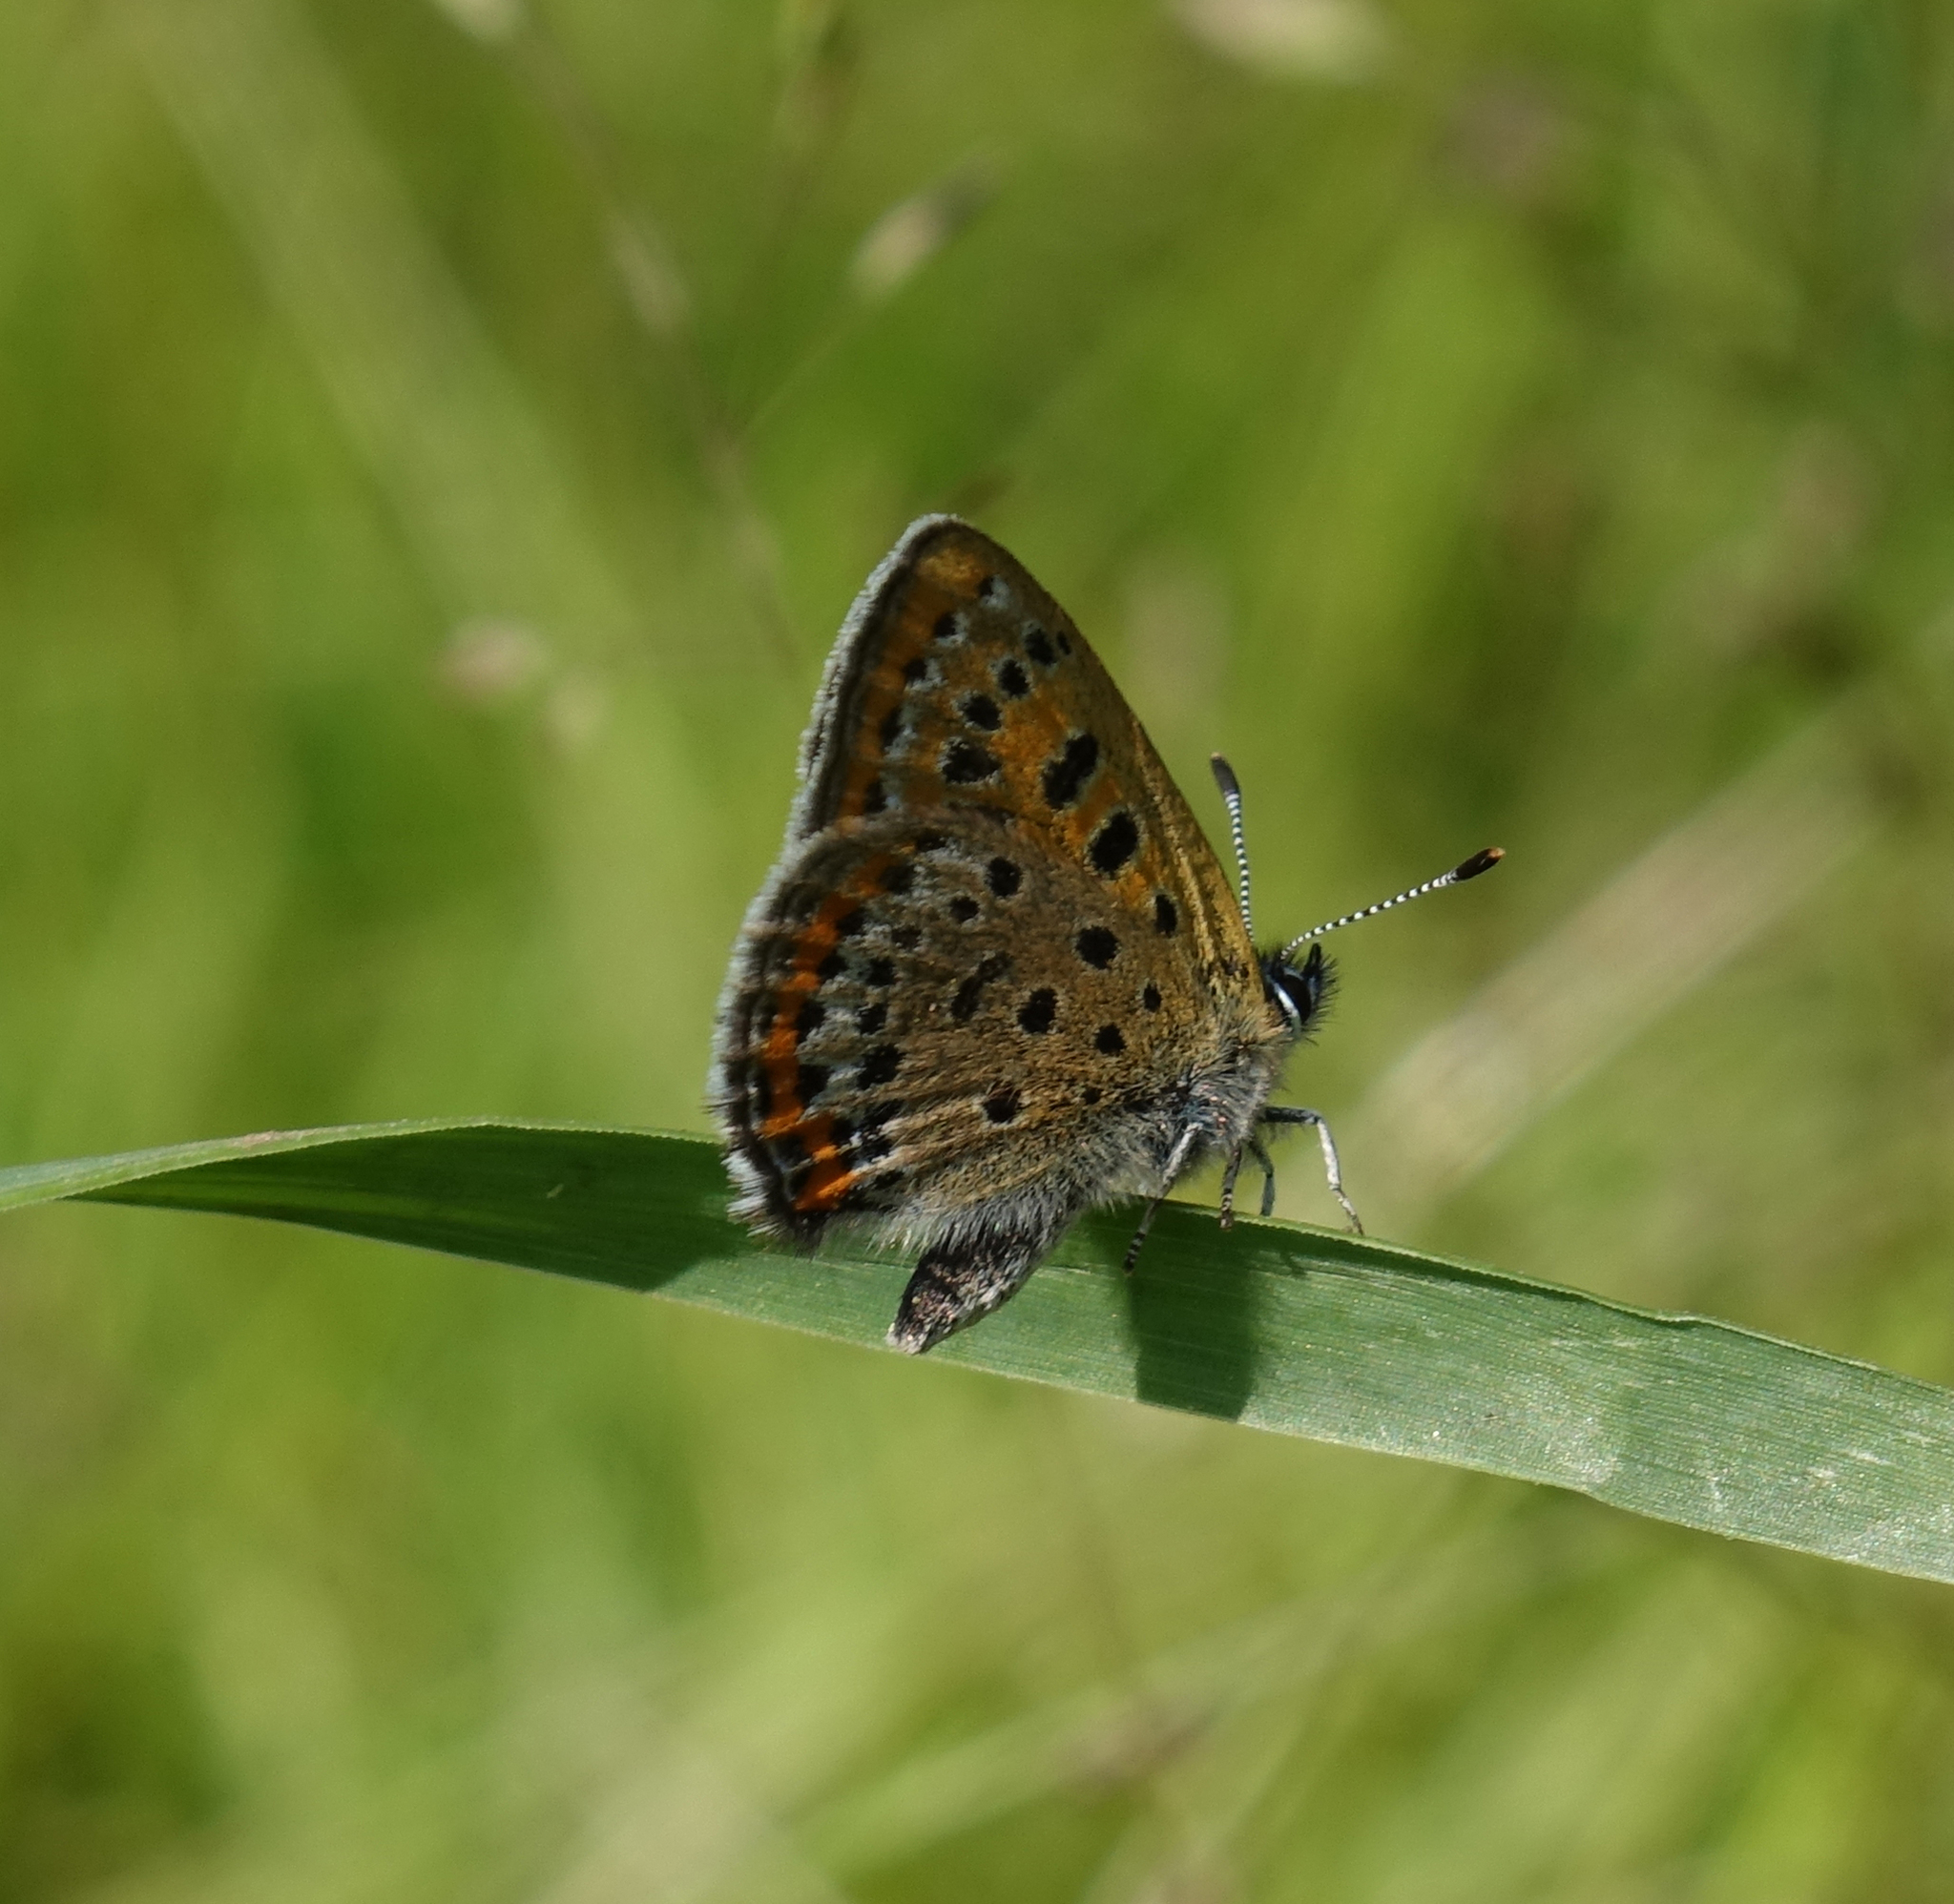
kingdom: Animalia
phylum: Arthropoda
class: Insecta
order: Lepidoptera
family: Lycaenidae
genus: Helleia
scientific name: Helleia helle
